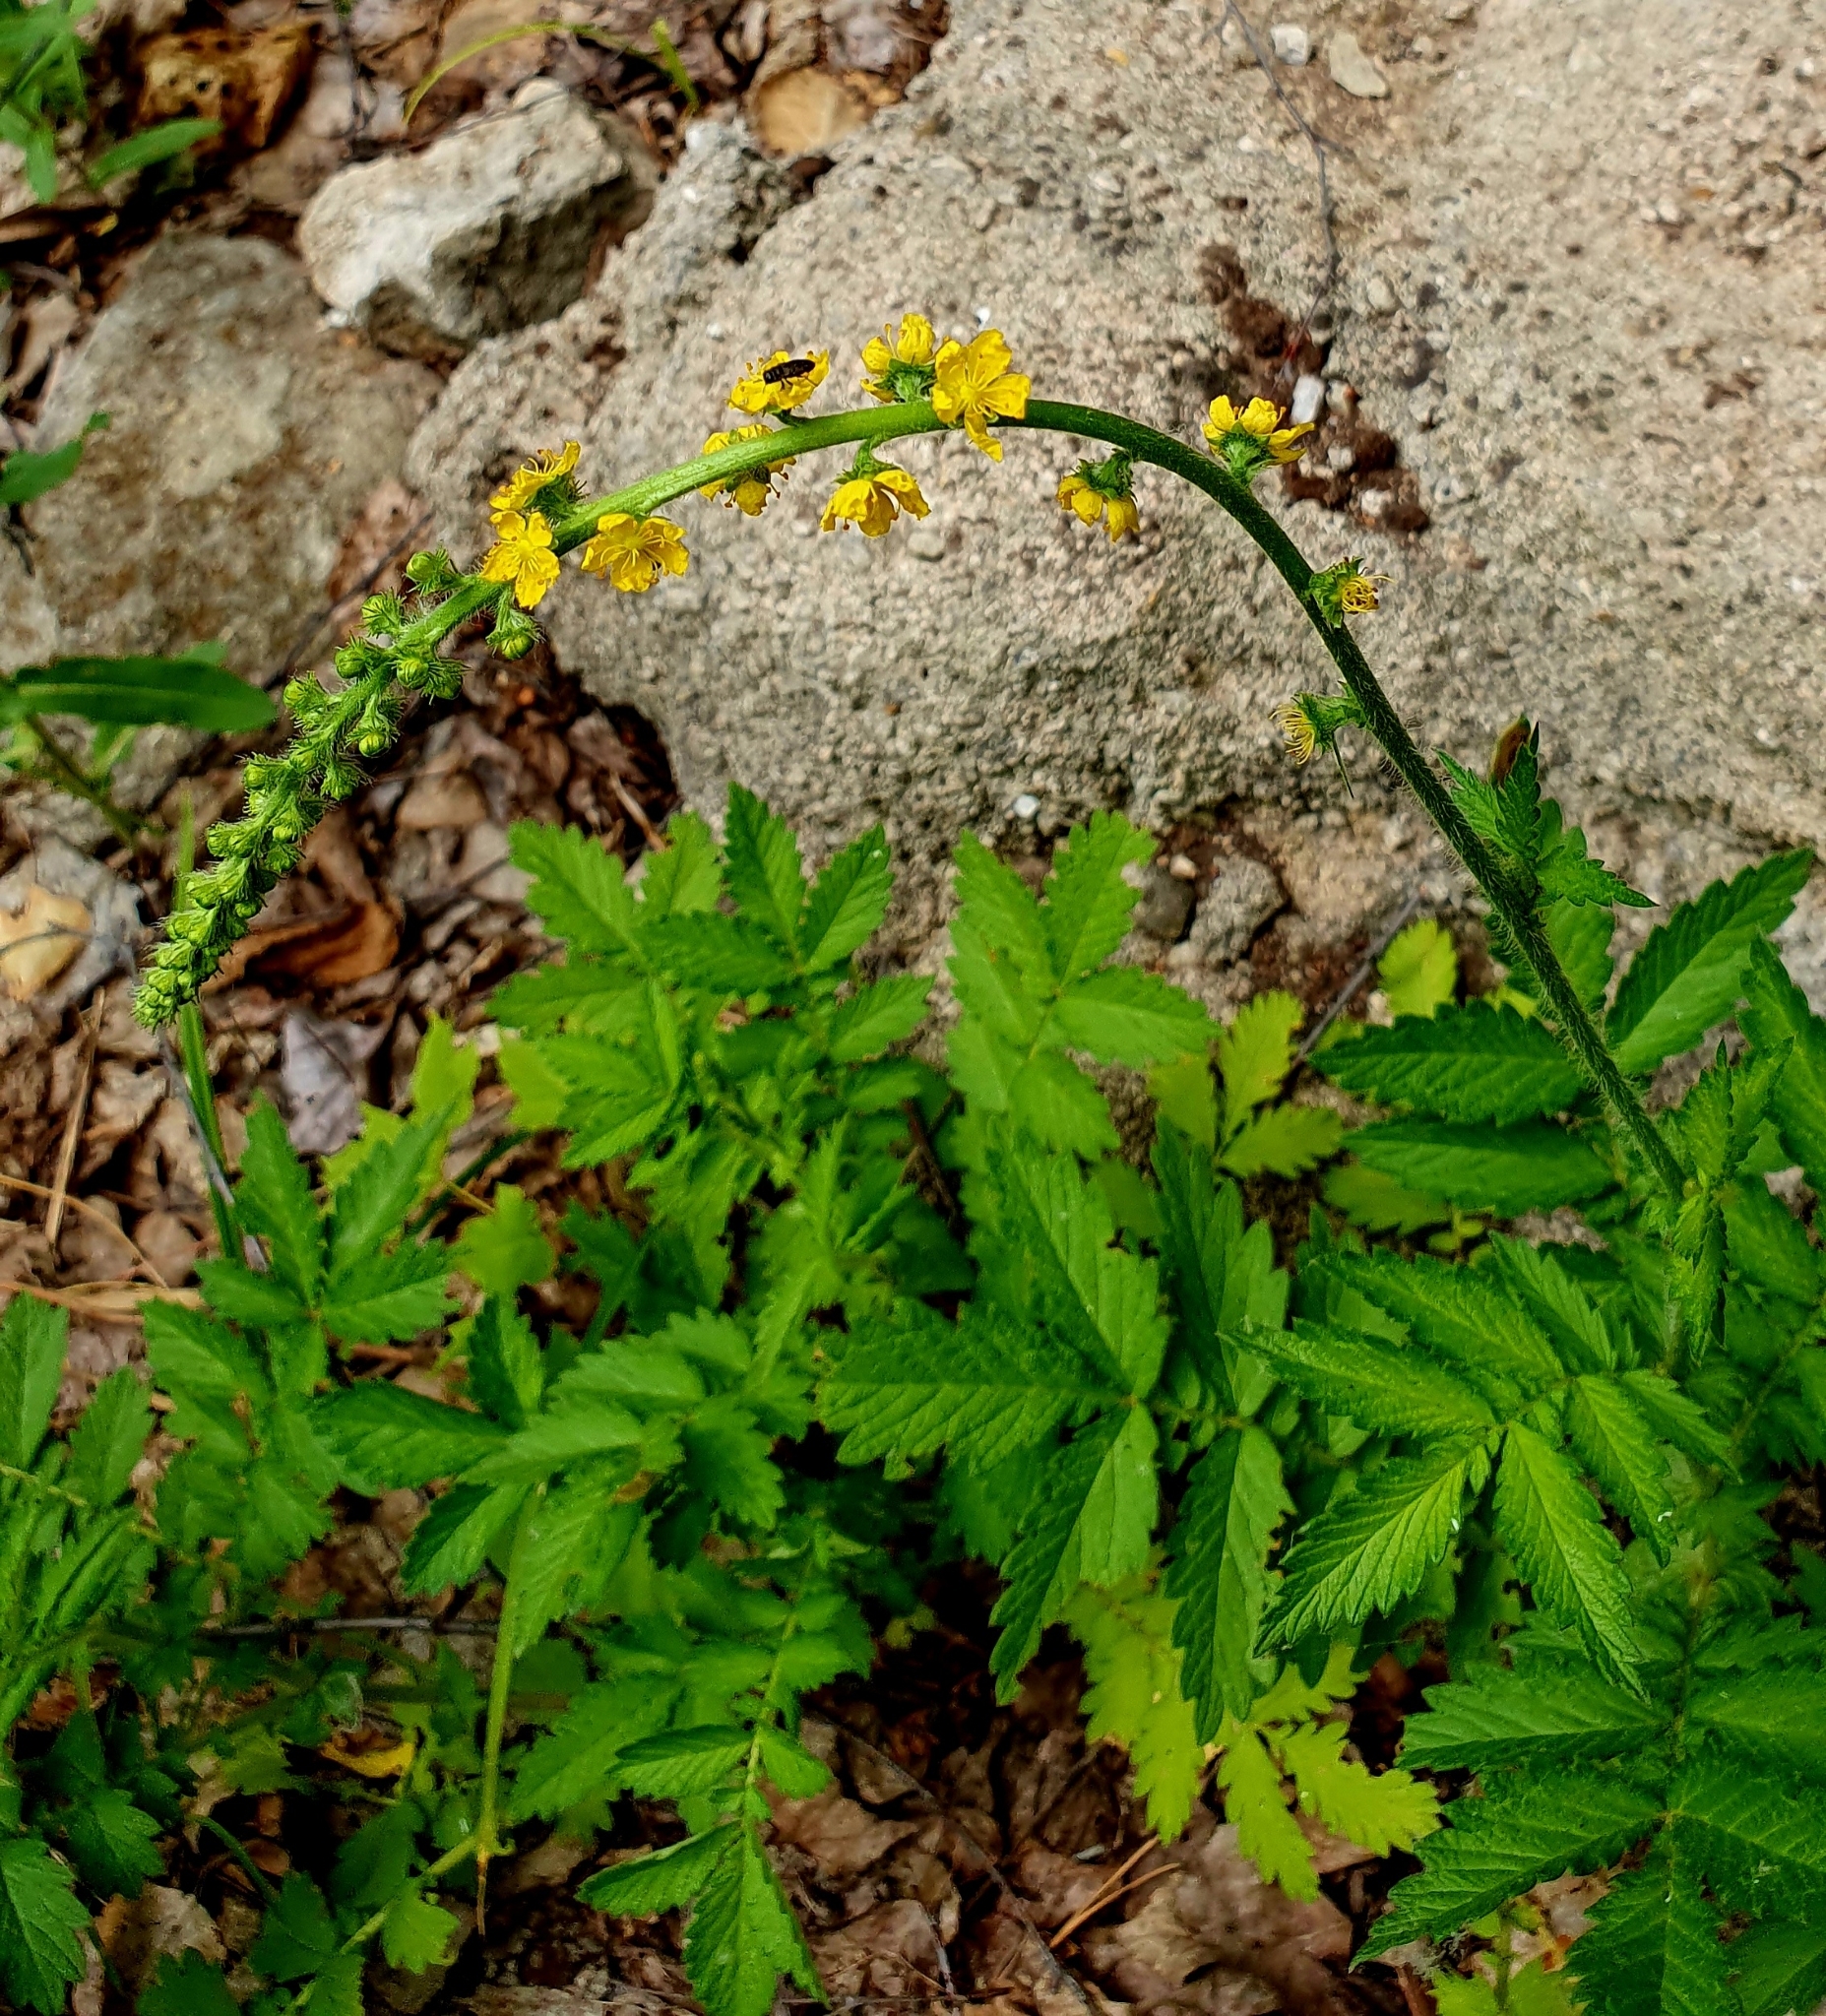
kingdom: Plantae
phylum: Tracheophyta
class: Magnoliopsida
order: Rosales
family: Rosaceae
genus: Agrimonia
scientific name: Agrimonia eupatoria
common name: Agrimony
